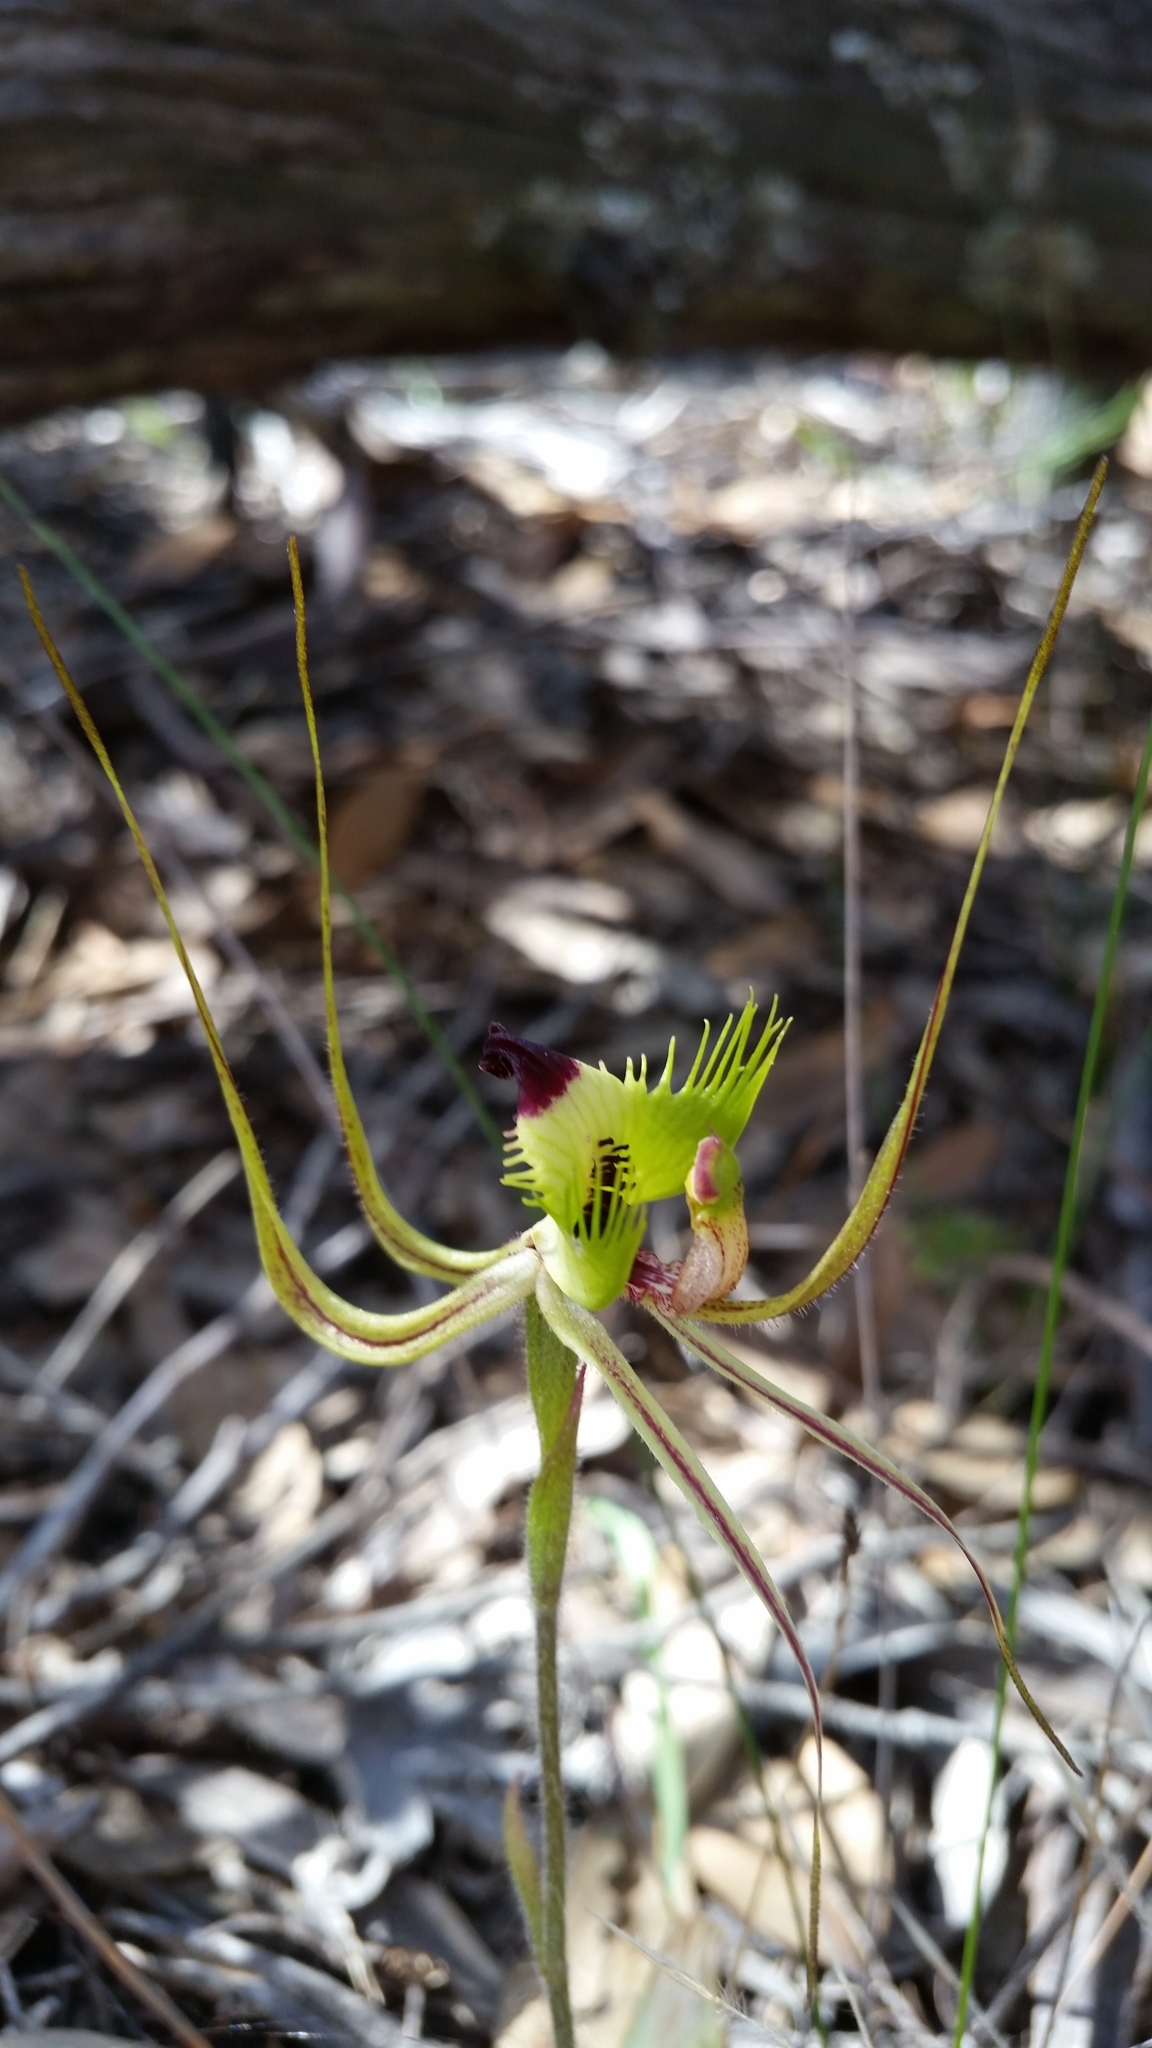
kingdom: Plantae
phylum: Tracheophyta
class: Liliopsida
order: Asparagales
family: Orchidaceae
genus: Caladenia
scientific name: Caladenia falcata
